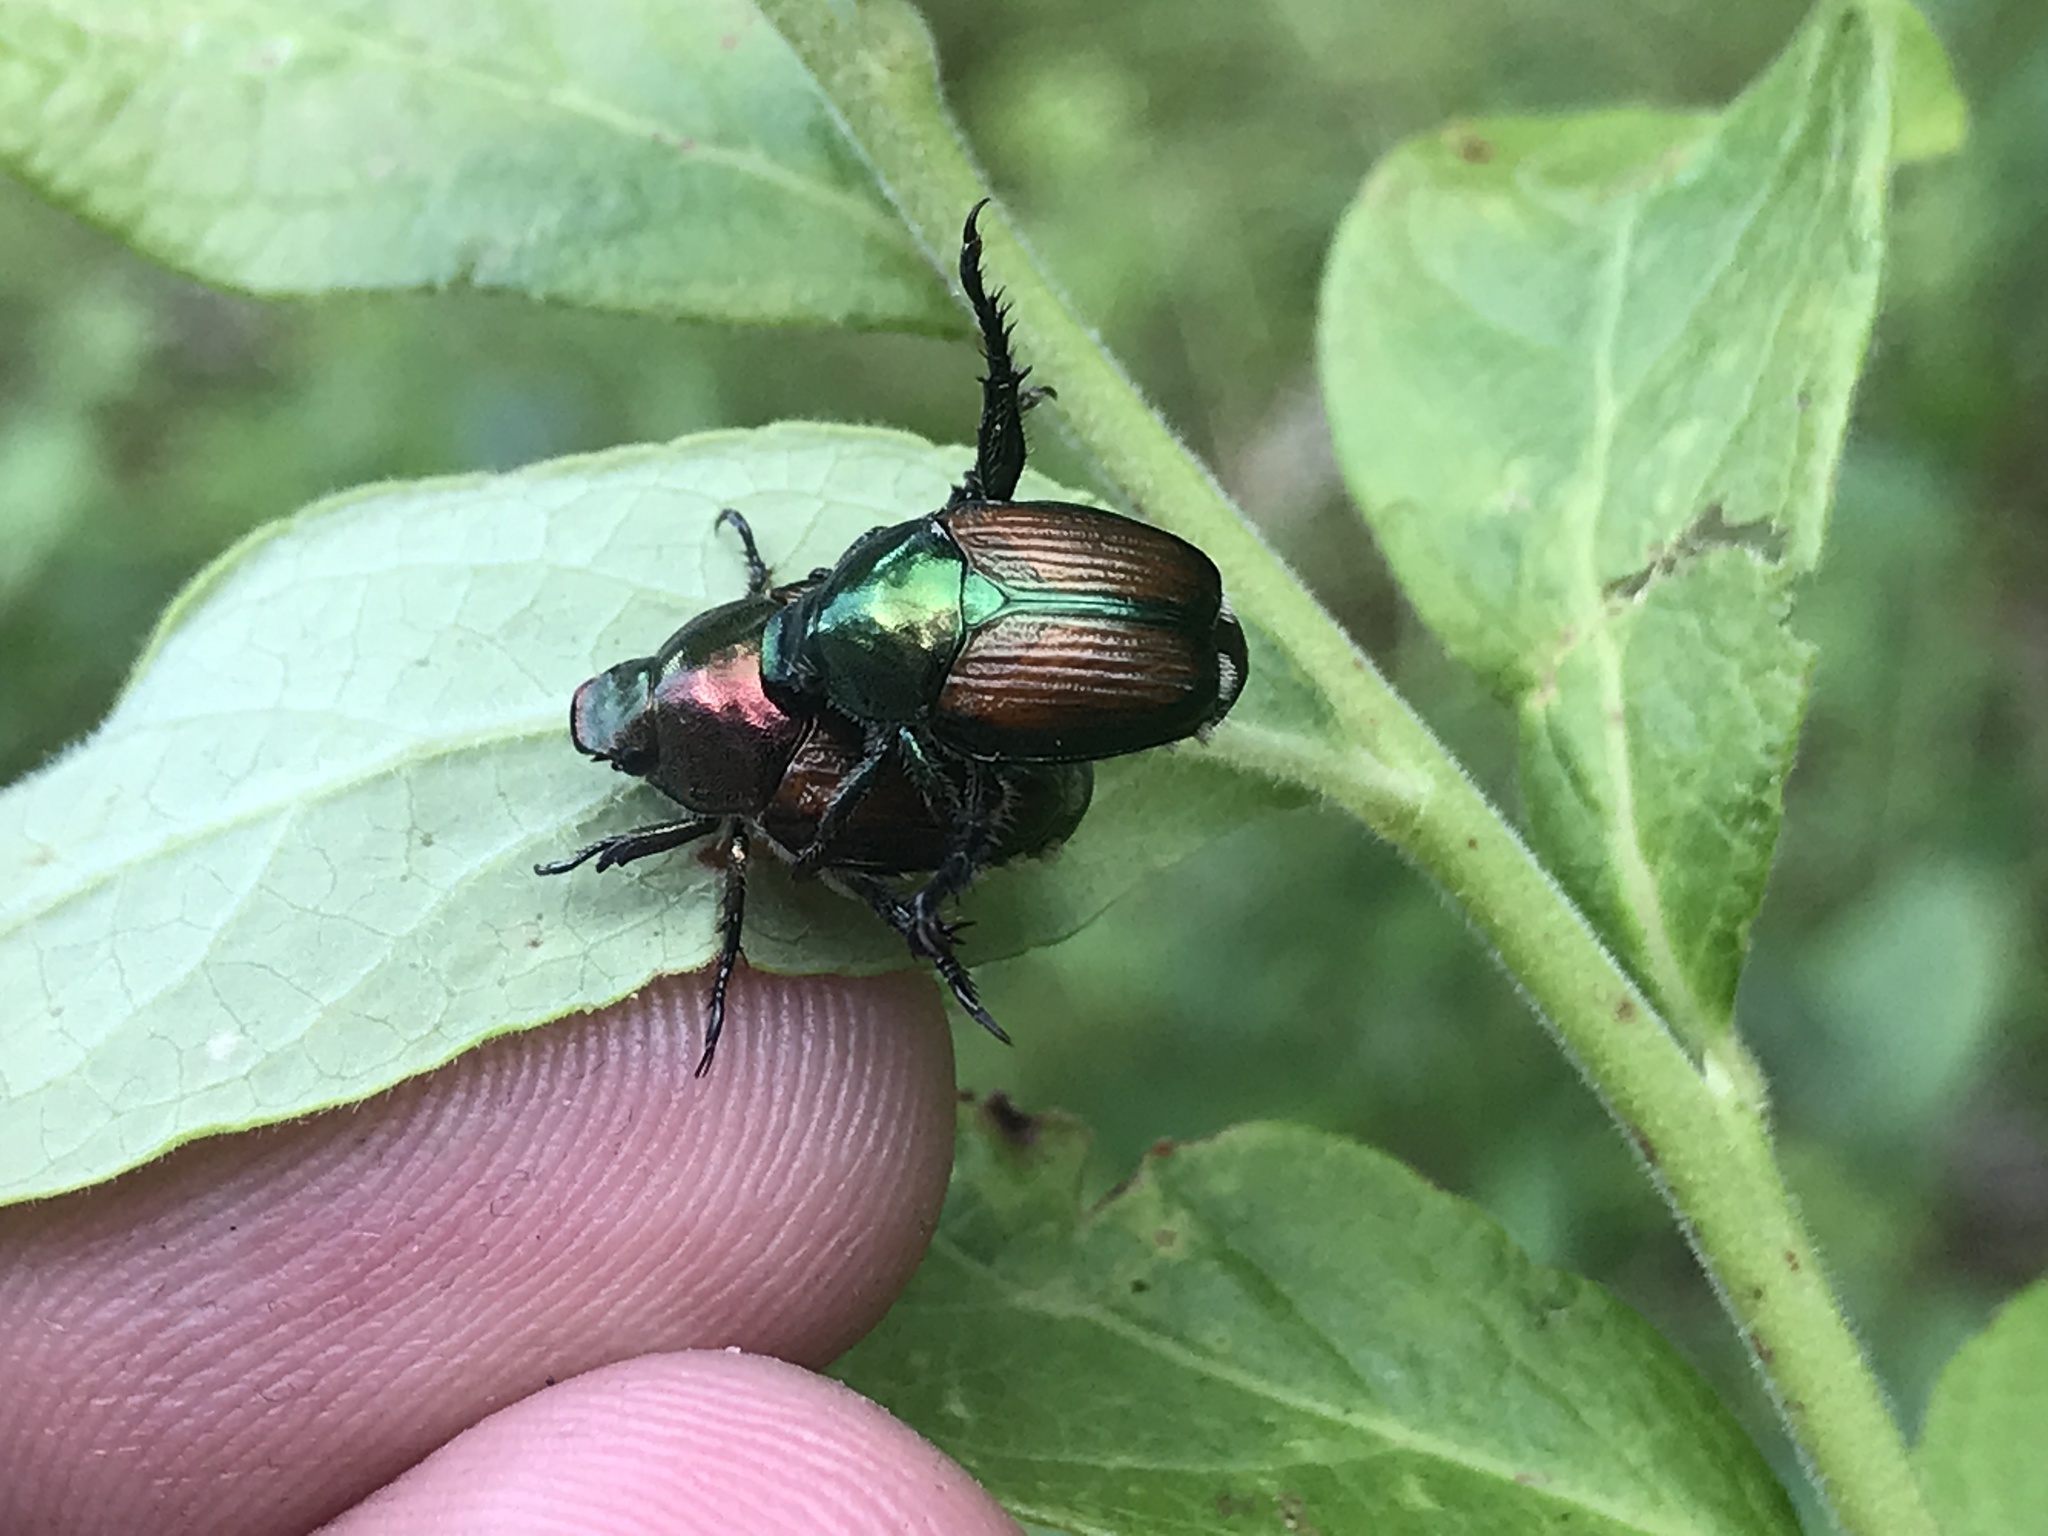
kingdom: Animalia
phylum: Arthropoda
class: Insecta
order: Coleoptera
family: Scarabaeidae
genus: Popillia
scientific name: Popillia japonica
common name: Japanese beetle
